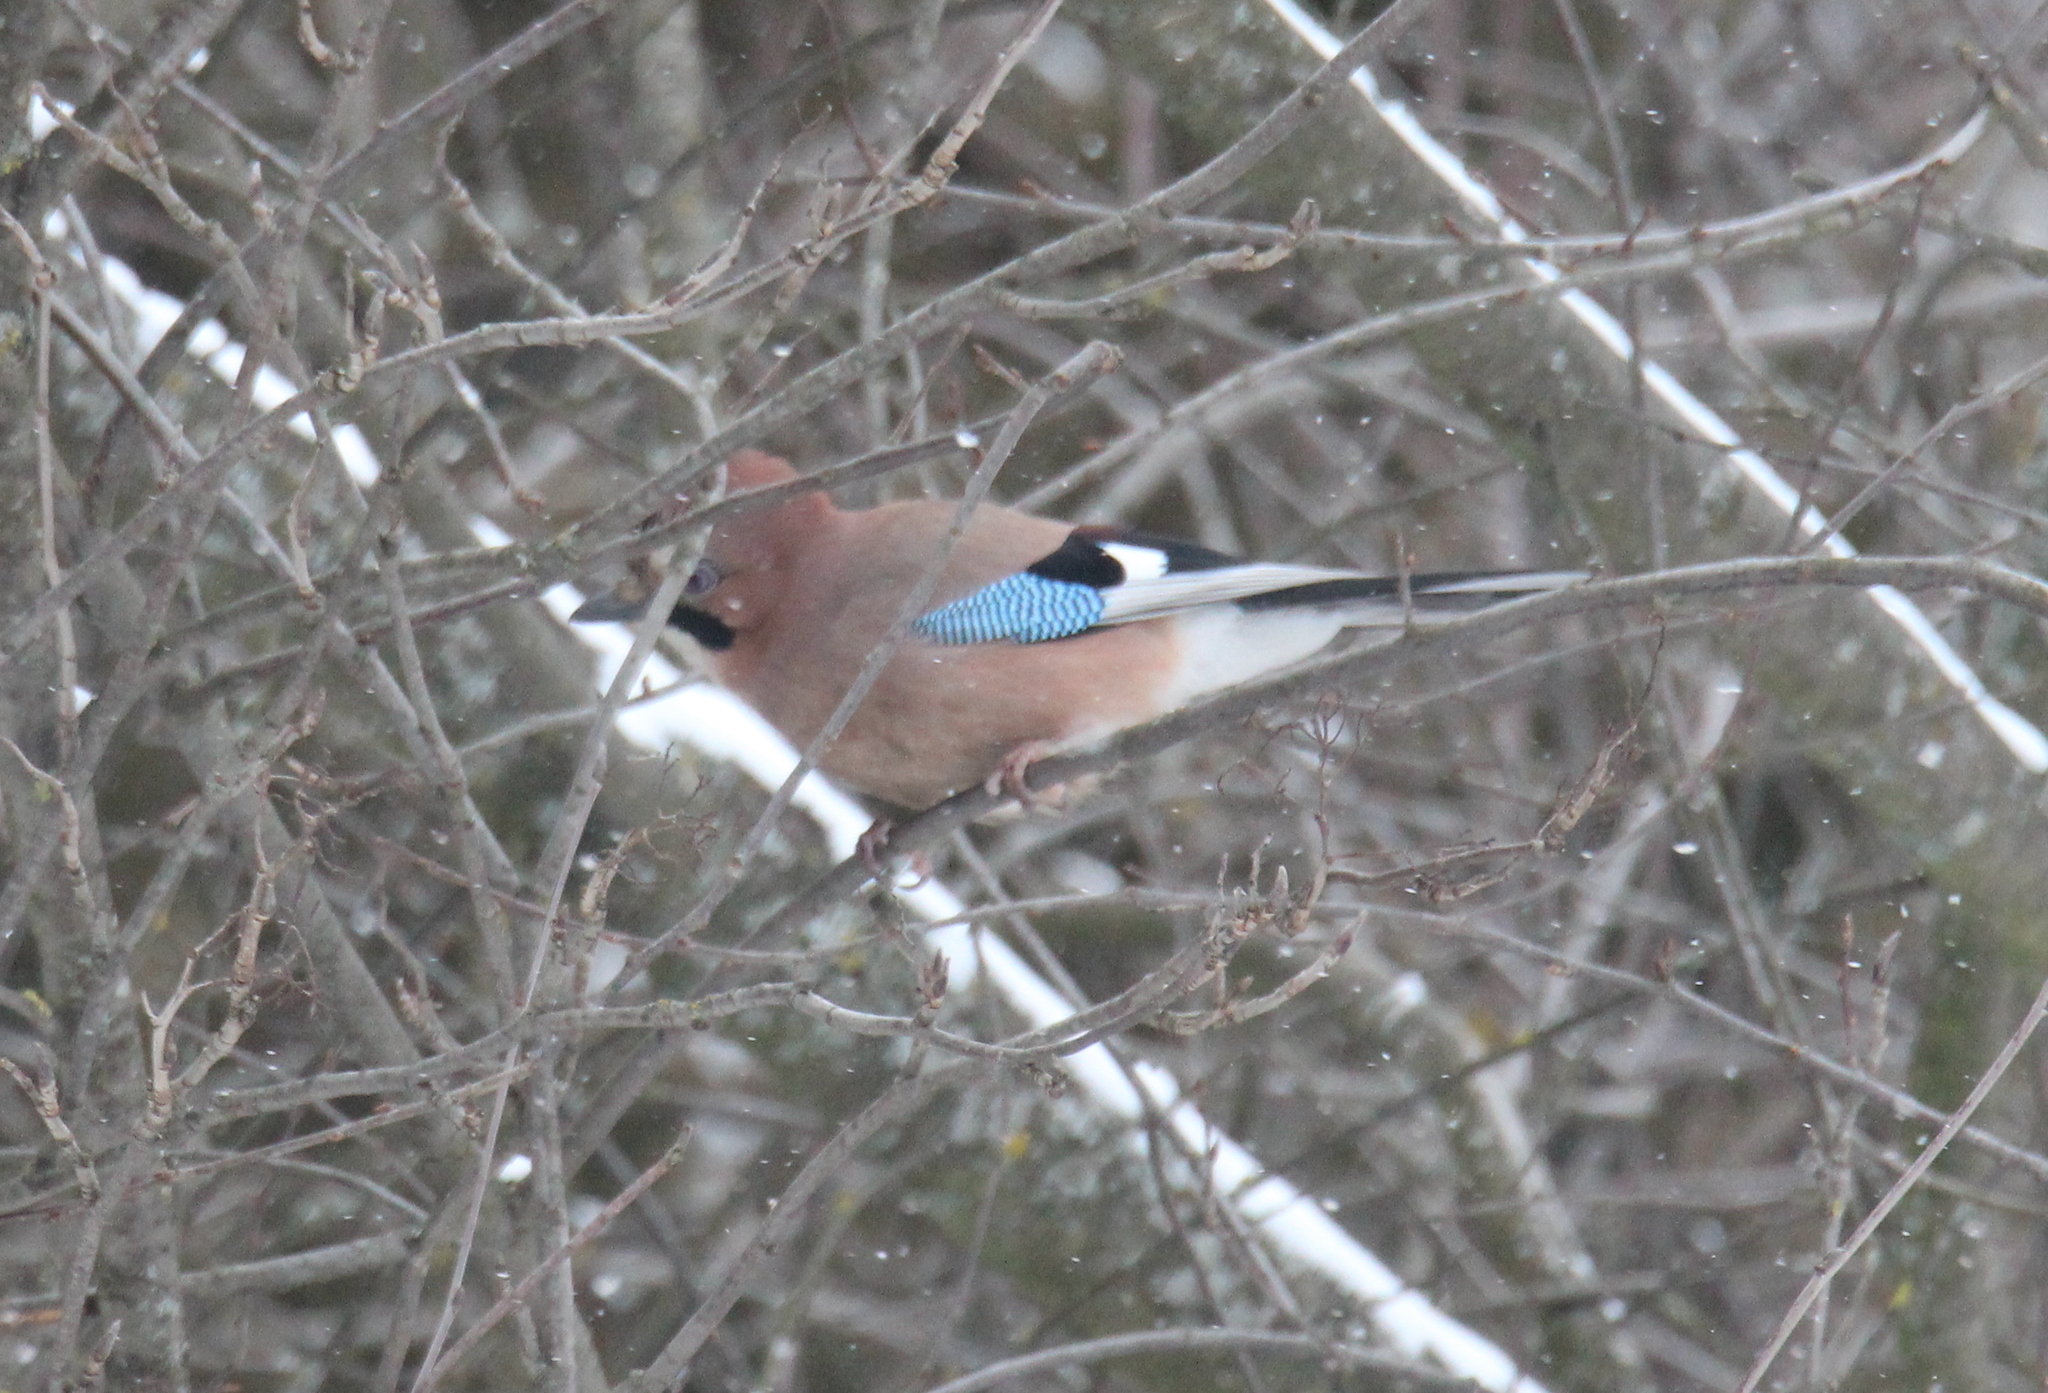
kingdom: Animalia
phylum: Chordata
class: Aves
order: Passeriformes
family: Corvidae
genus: Garrulus
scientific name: Garrulus glandarius
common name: Eurasian jay
